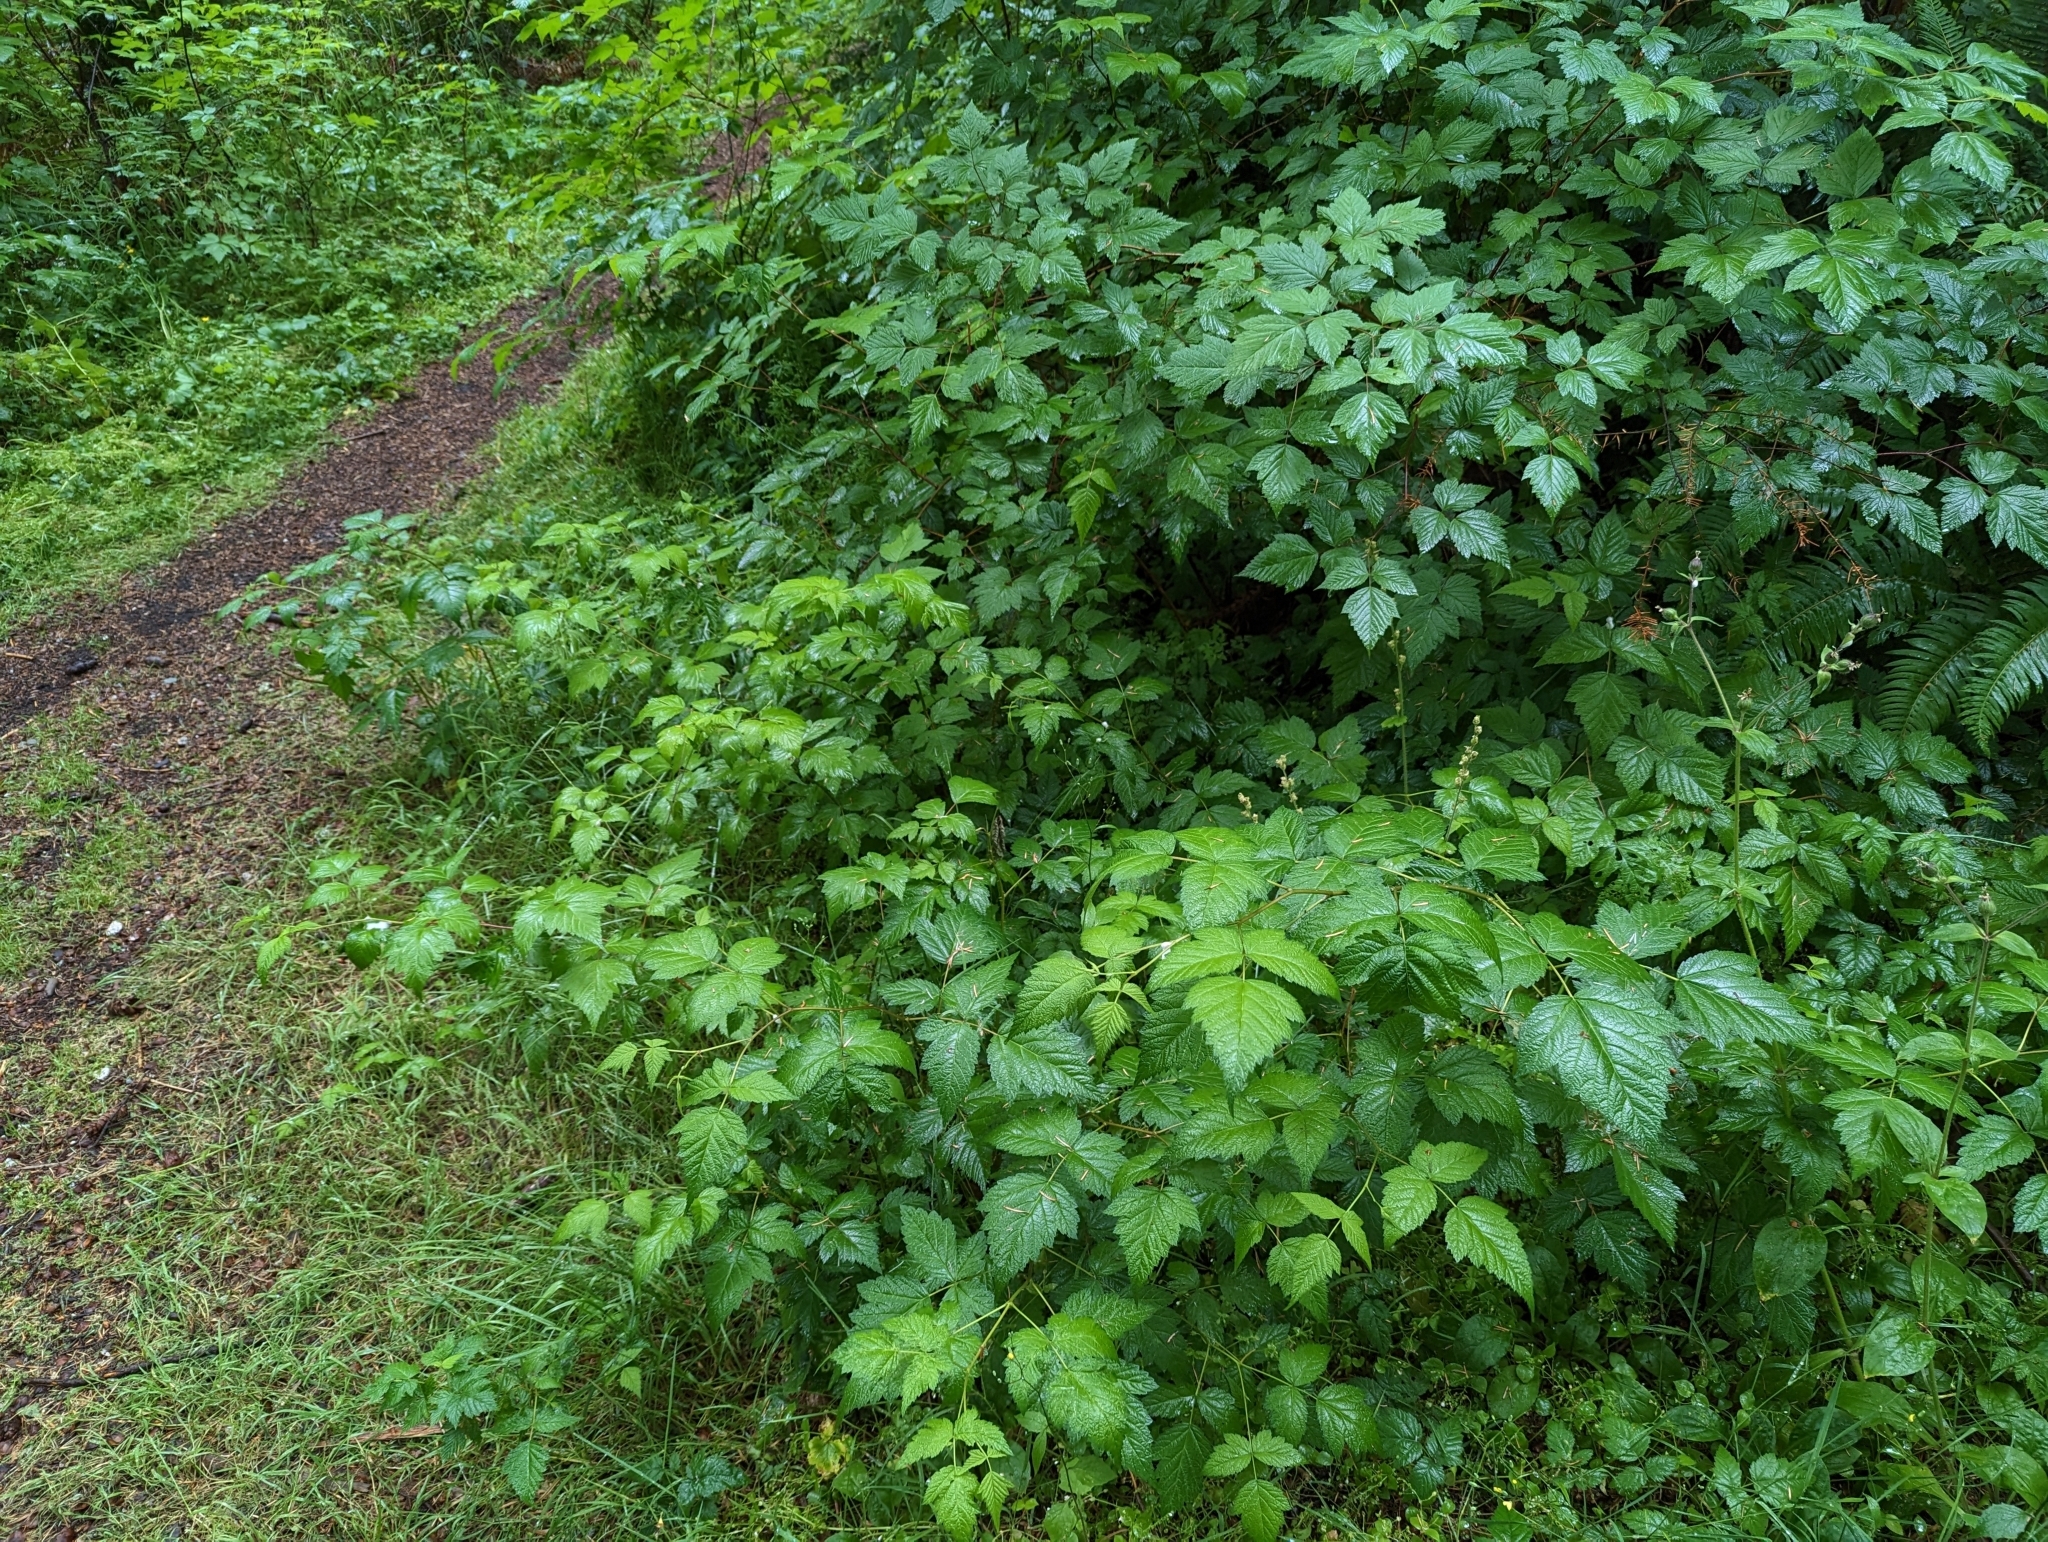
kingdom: Plantae
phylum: Tracheophyta
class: Magnoliopsida
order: Rosales
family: Rosaceae
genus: Rubus
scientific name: Rubus spectabilis
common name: Salmonberry
